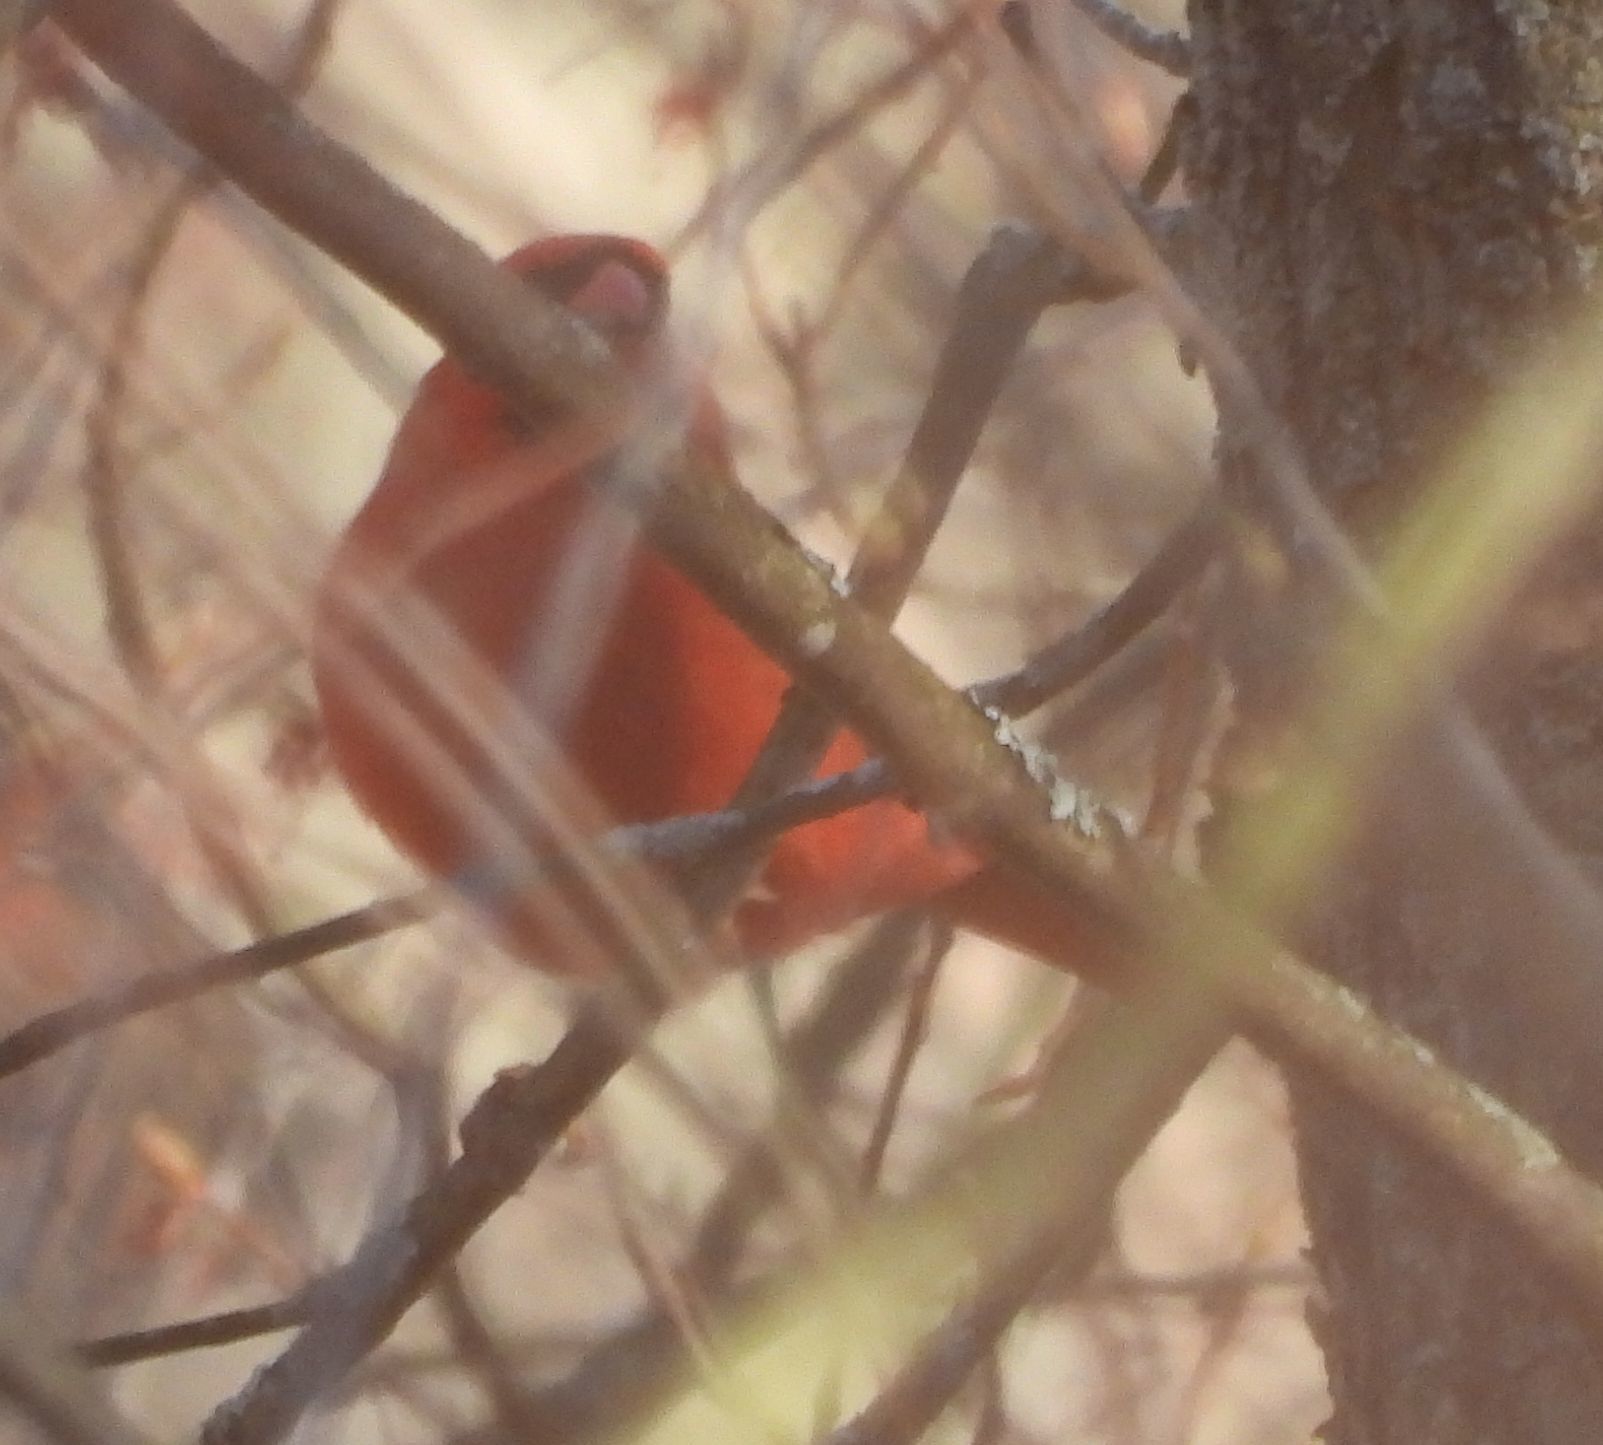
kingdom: Animalia
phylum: Chordata
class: Aves
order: Passeriformes
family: Cardinalidae
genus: Cardinalis
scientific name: Cardinalis cardinalis
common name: Northern cardinal
